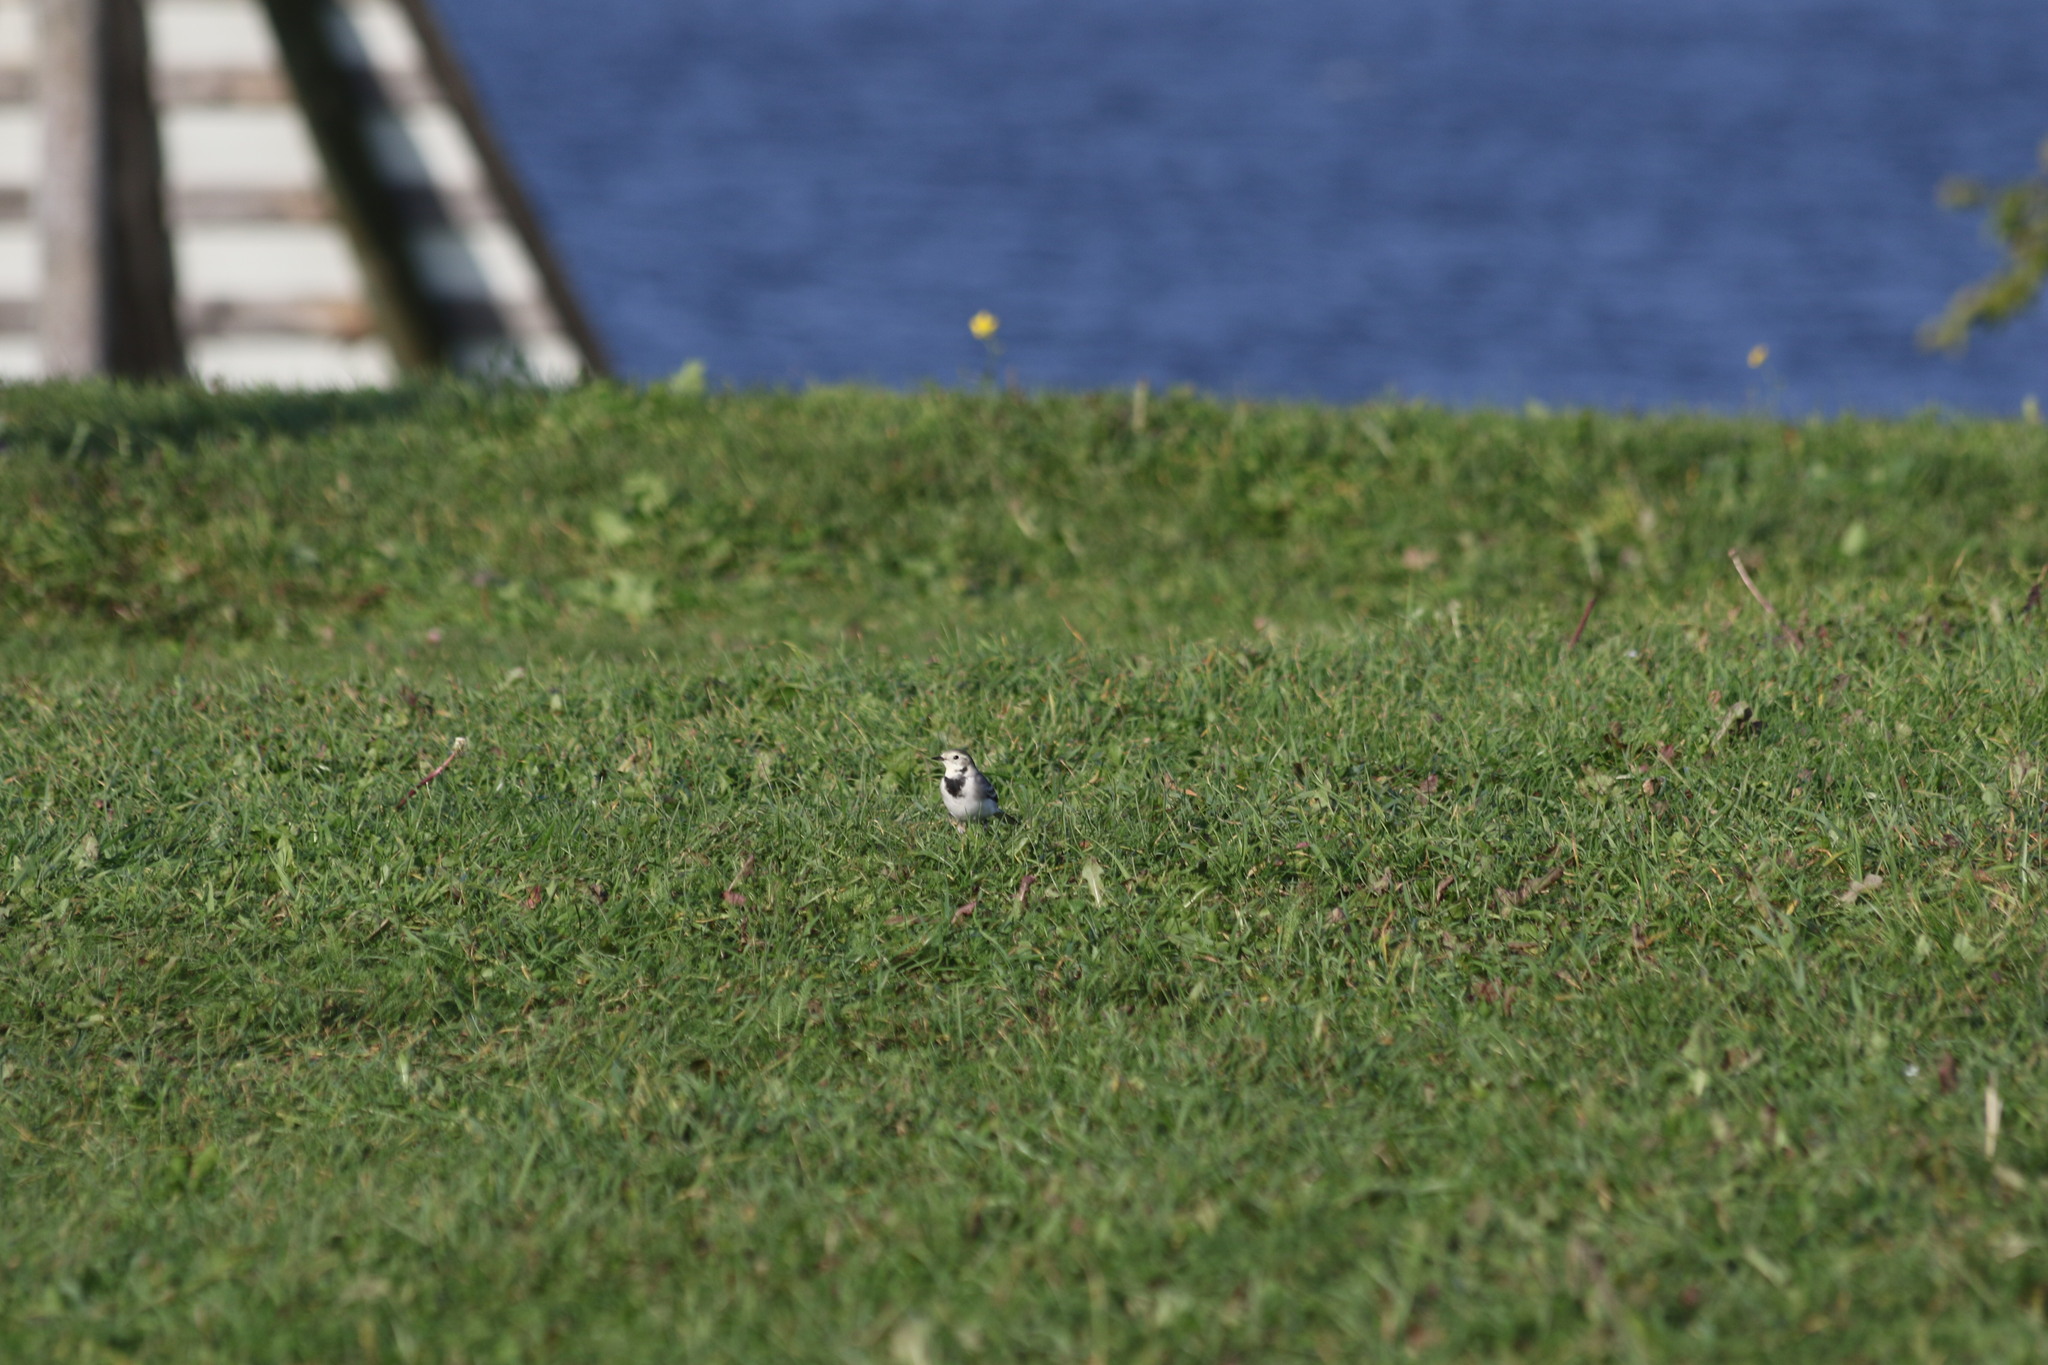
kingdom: Animalia
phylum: Chordata
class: Aves
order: Passeriformes
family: Motacillidae
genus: Motacilla
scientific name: Motacilla alba
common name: White wagtail
